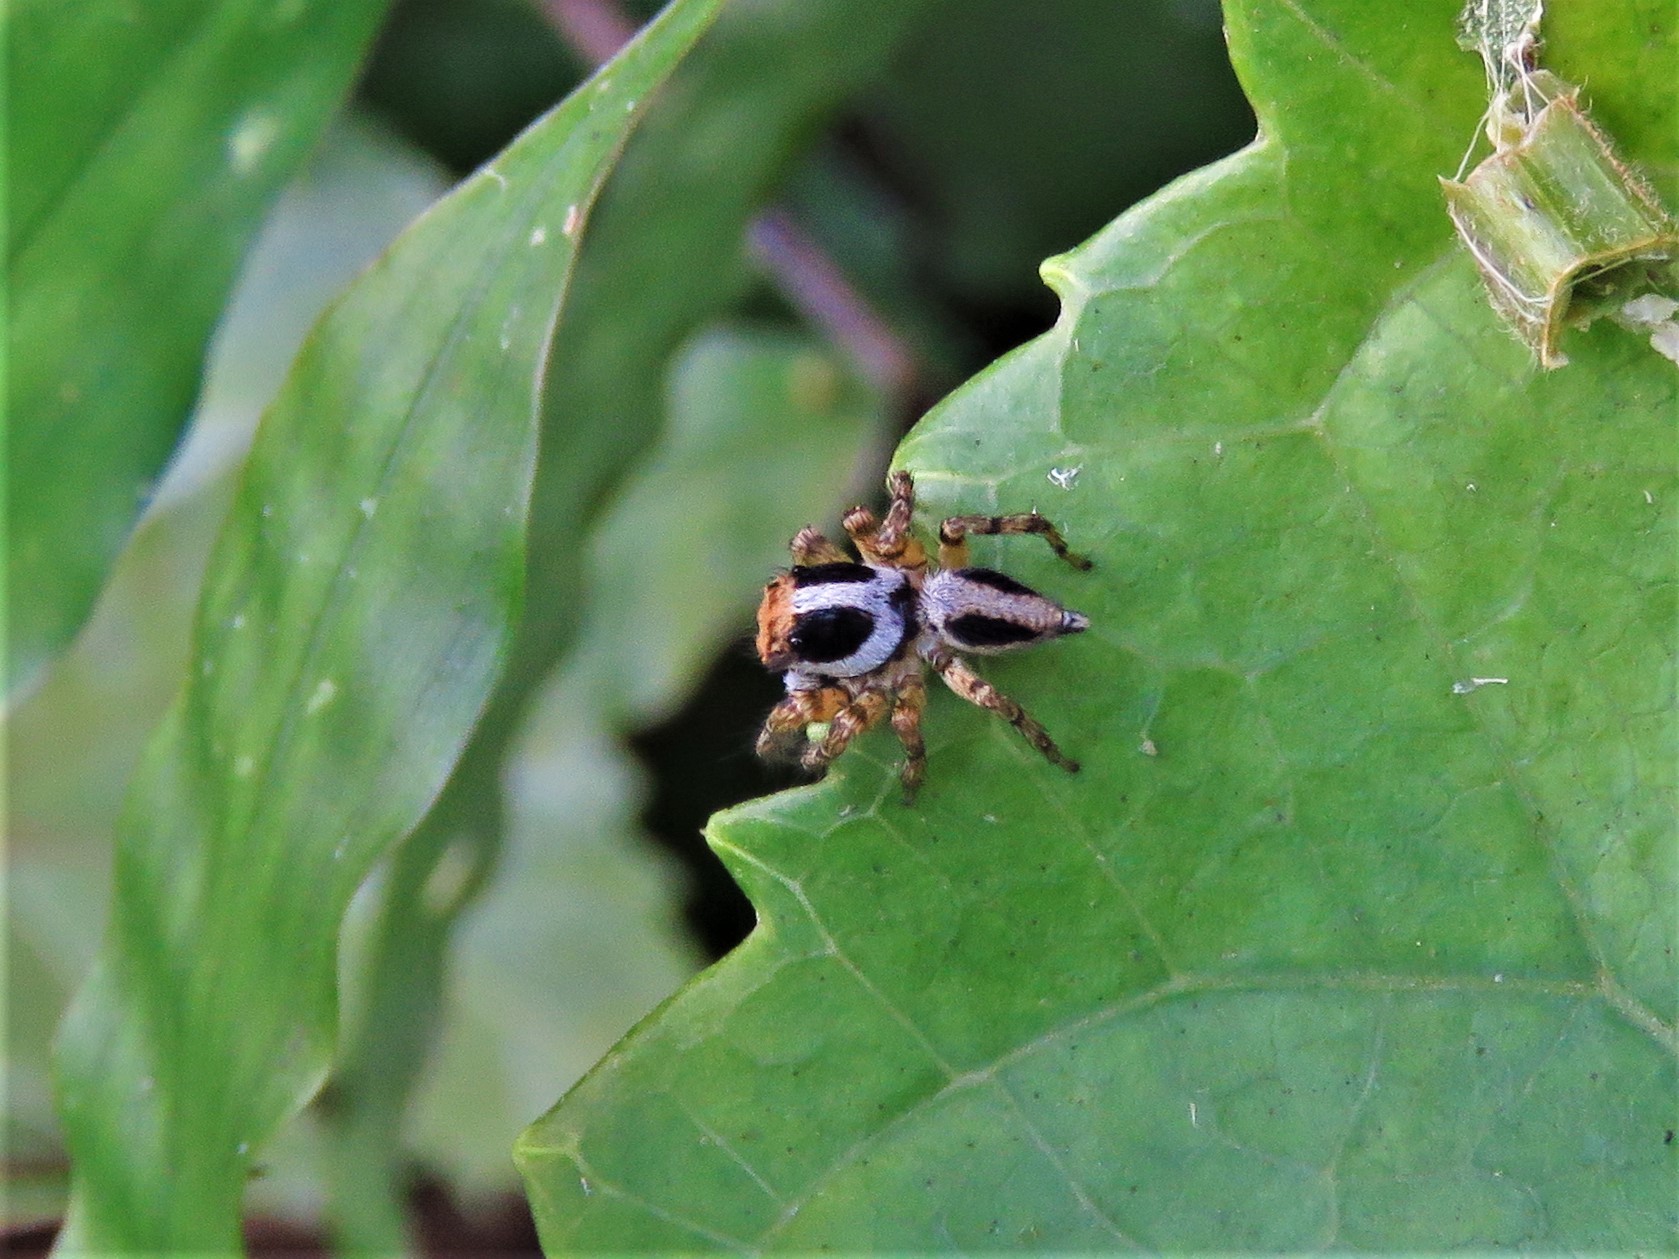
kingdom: Animalia
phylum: Arthropoda
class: Arachnida
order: Araneae
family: Salticidae
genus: Tarkas
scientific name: Tarkas maculatipes
